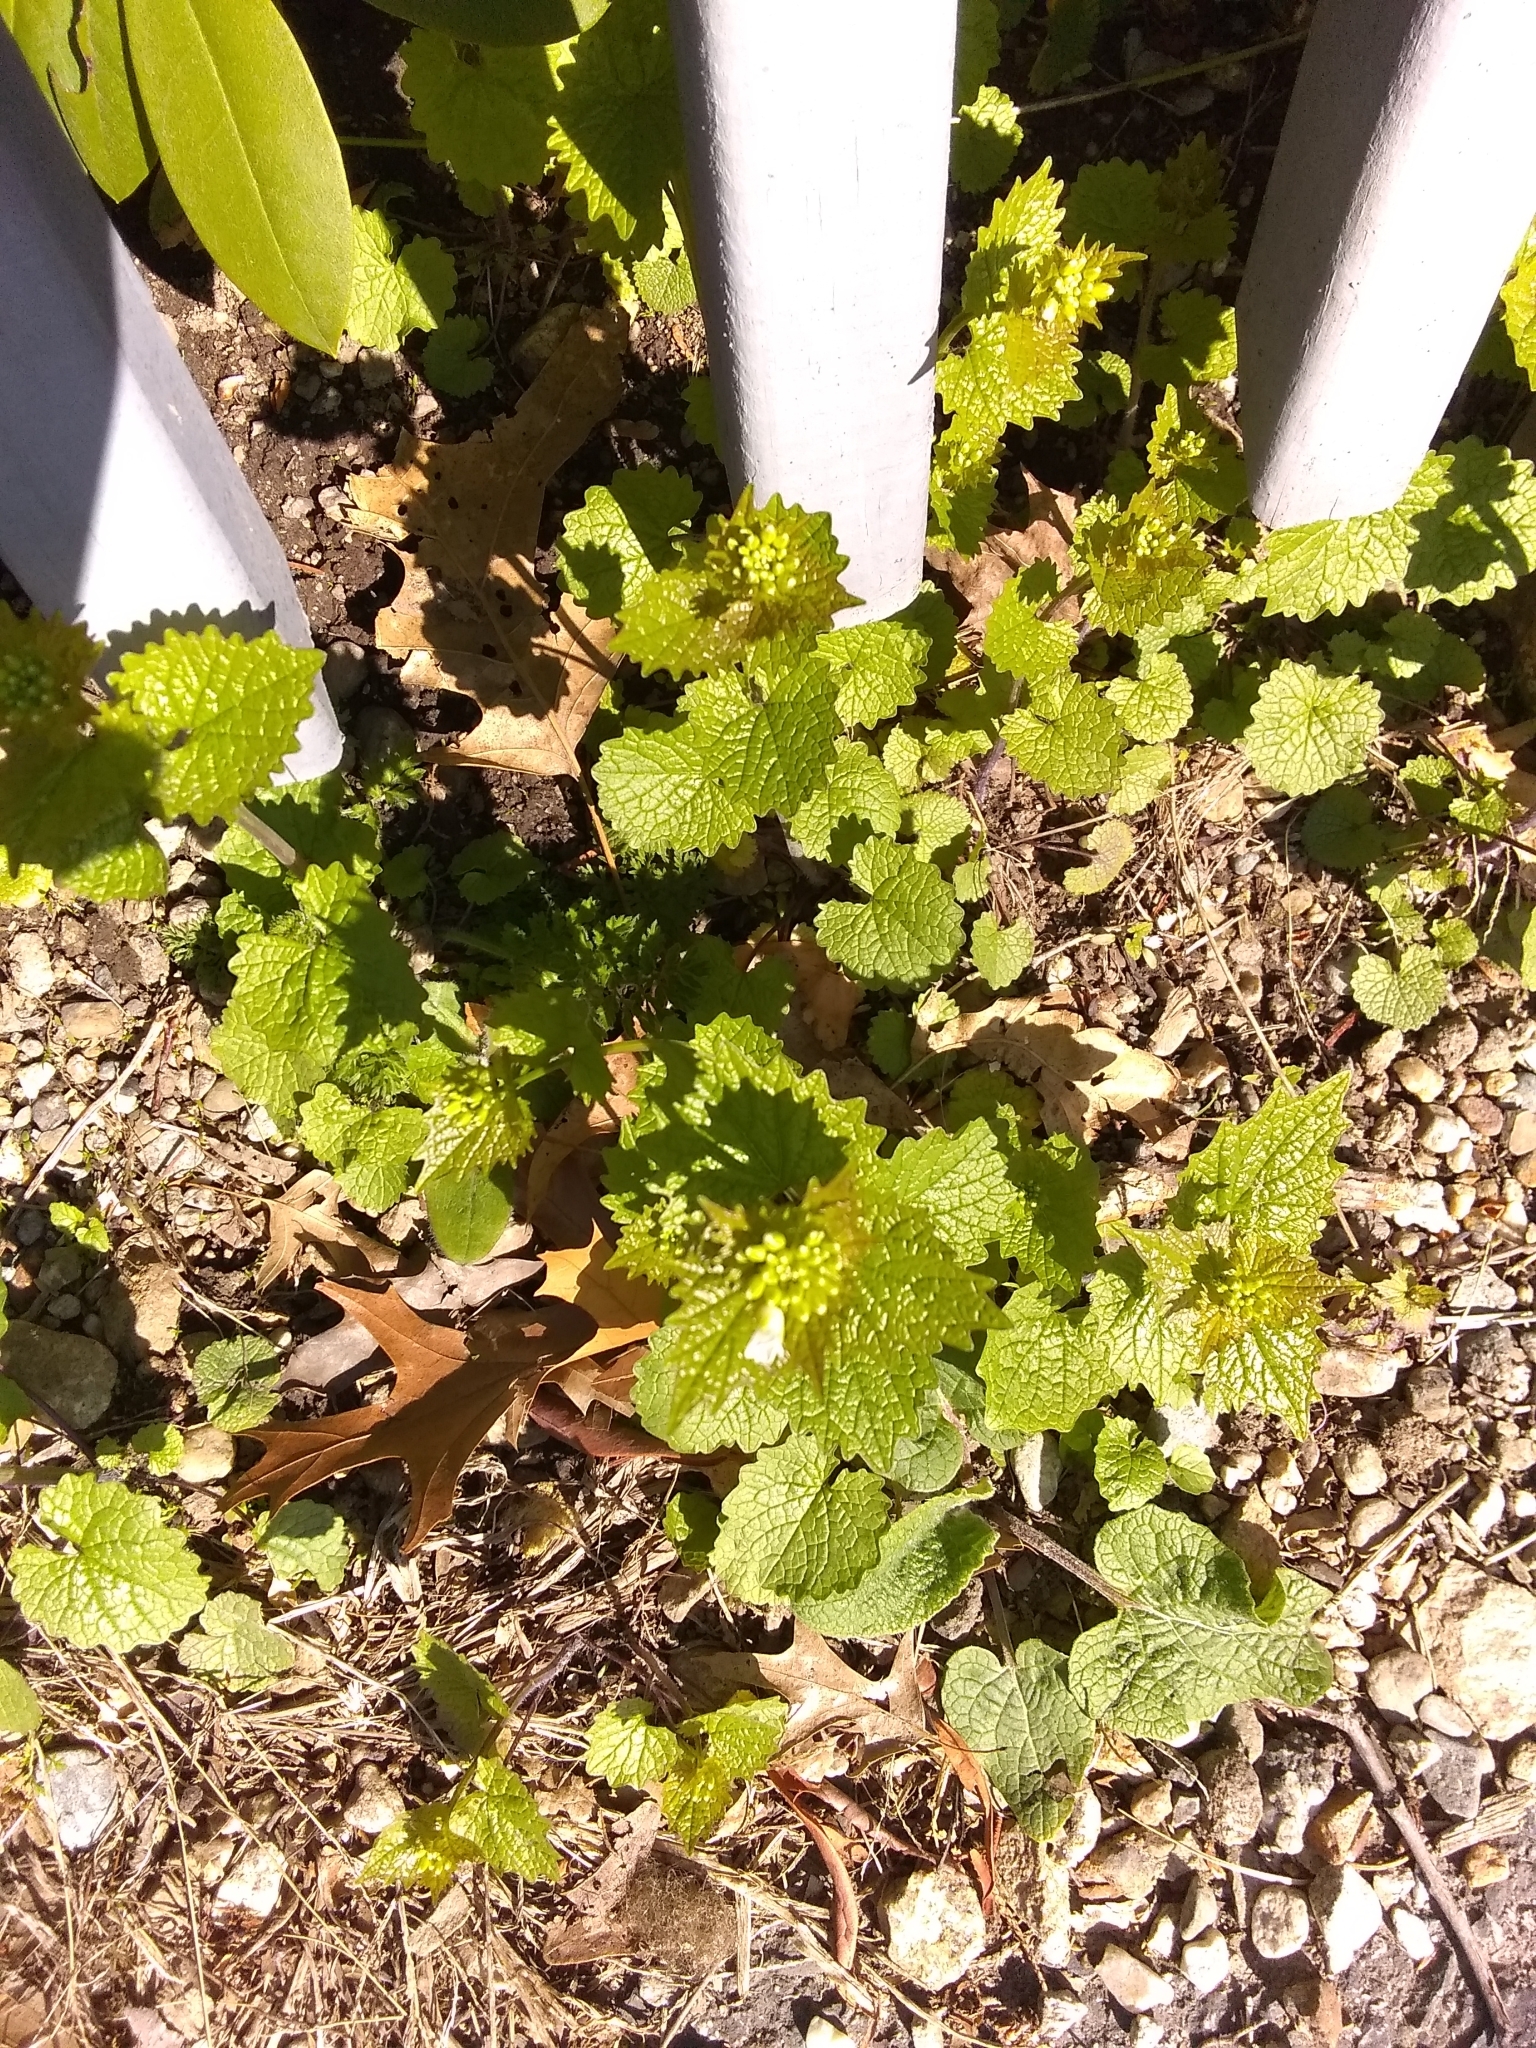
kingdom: Plantae
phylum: Tracheophyta
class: Magnoliopsida
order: Brassicales
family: Brassicaceae
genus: Alliaria
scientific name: Alliaria petiolata
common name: Garlic mustard
